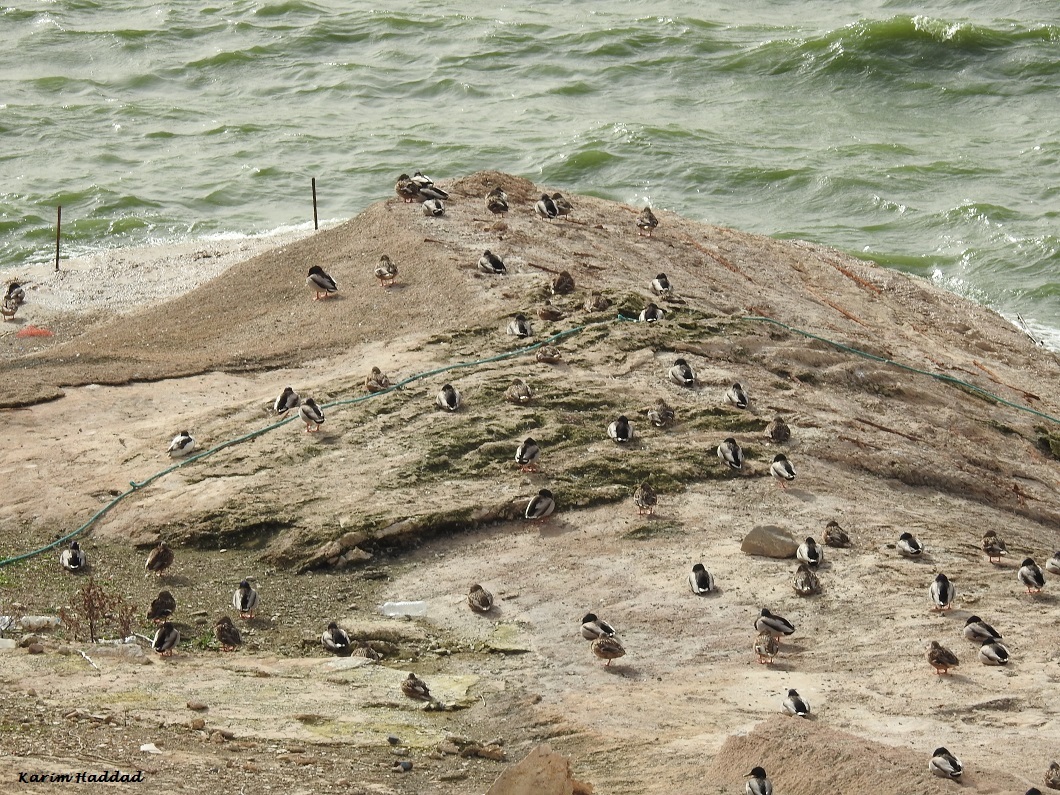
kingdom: Animalia
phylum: Chordata
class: Aves
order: Anseriformes
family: Anatidae
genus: Anas
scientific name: Anas platyrhynchos
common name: Mallard
